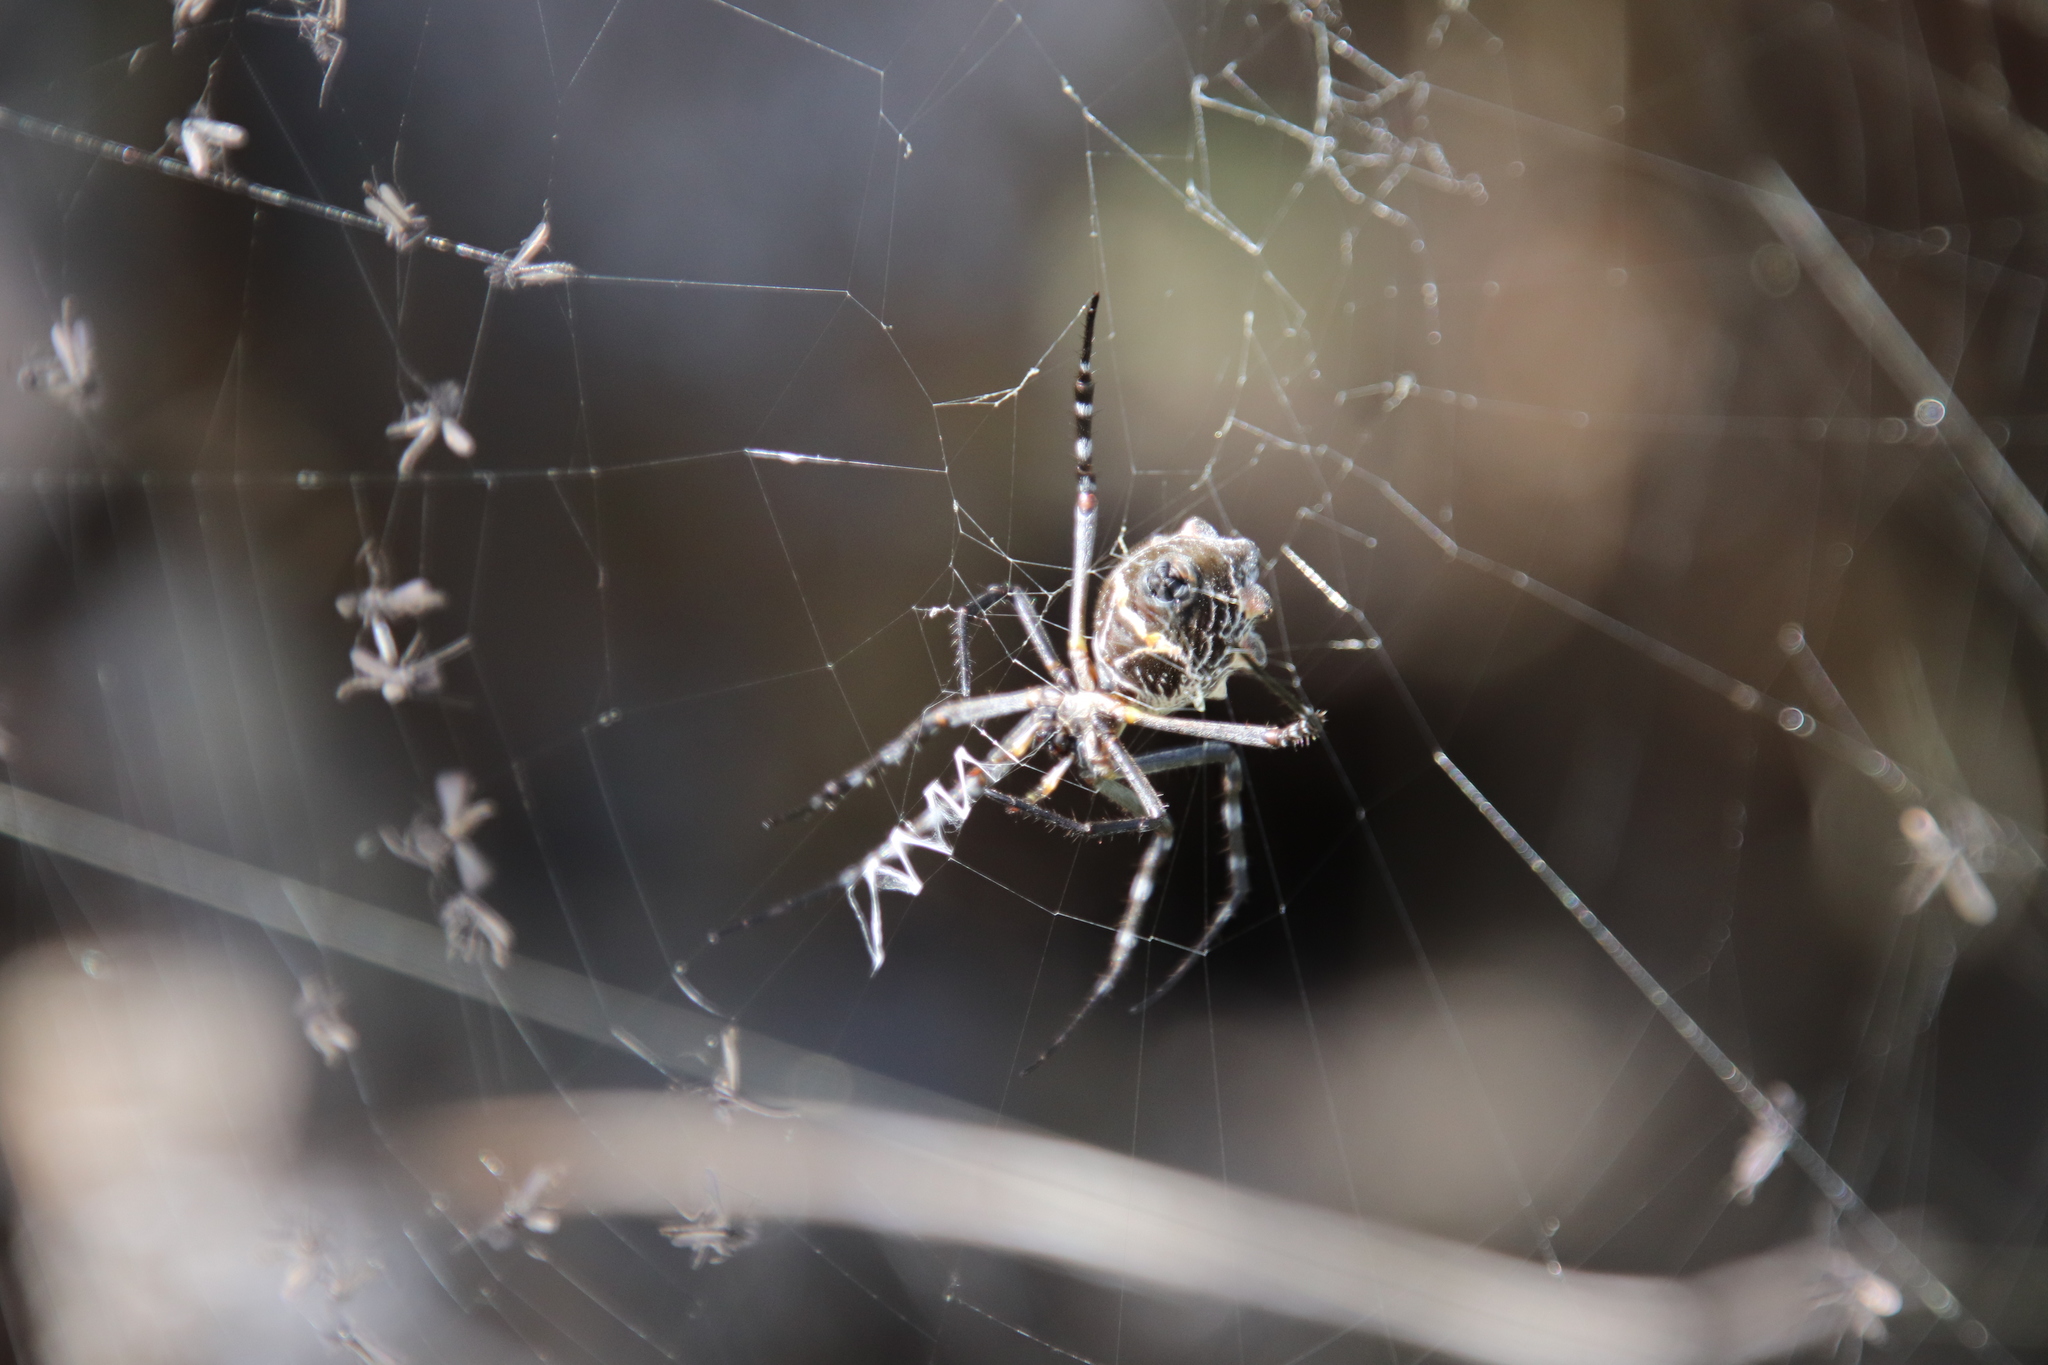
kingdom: Animalia
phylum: Arthropoda
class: Arachnida
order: Araneae
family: Araneidae
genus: Argiope
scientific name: Argiope argentata
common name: Orb weavers
